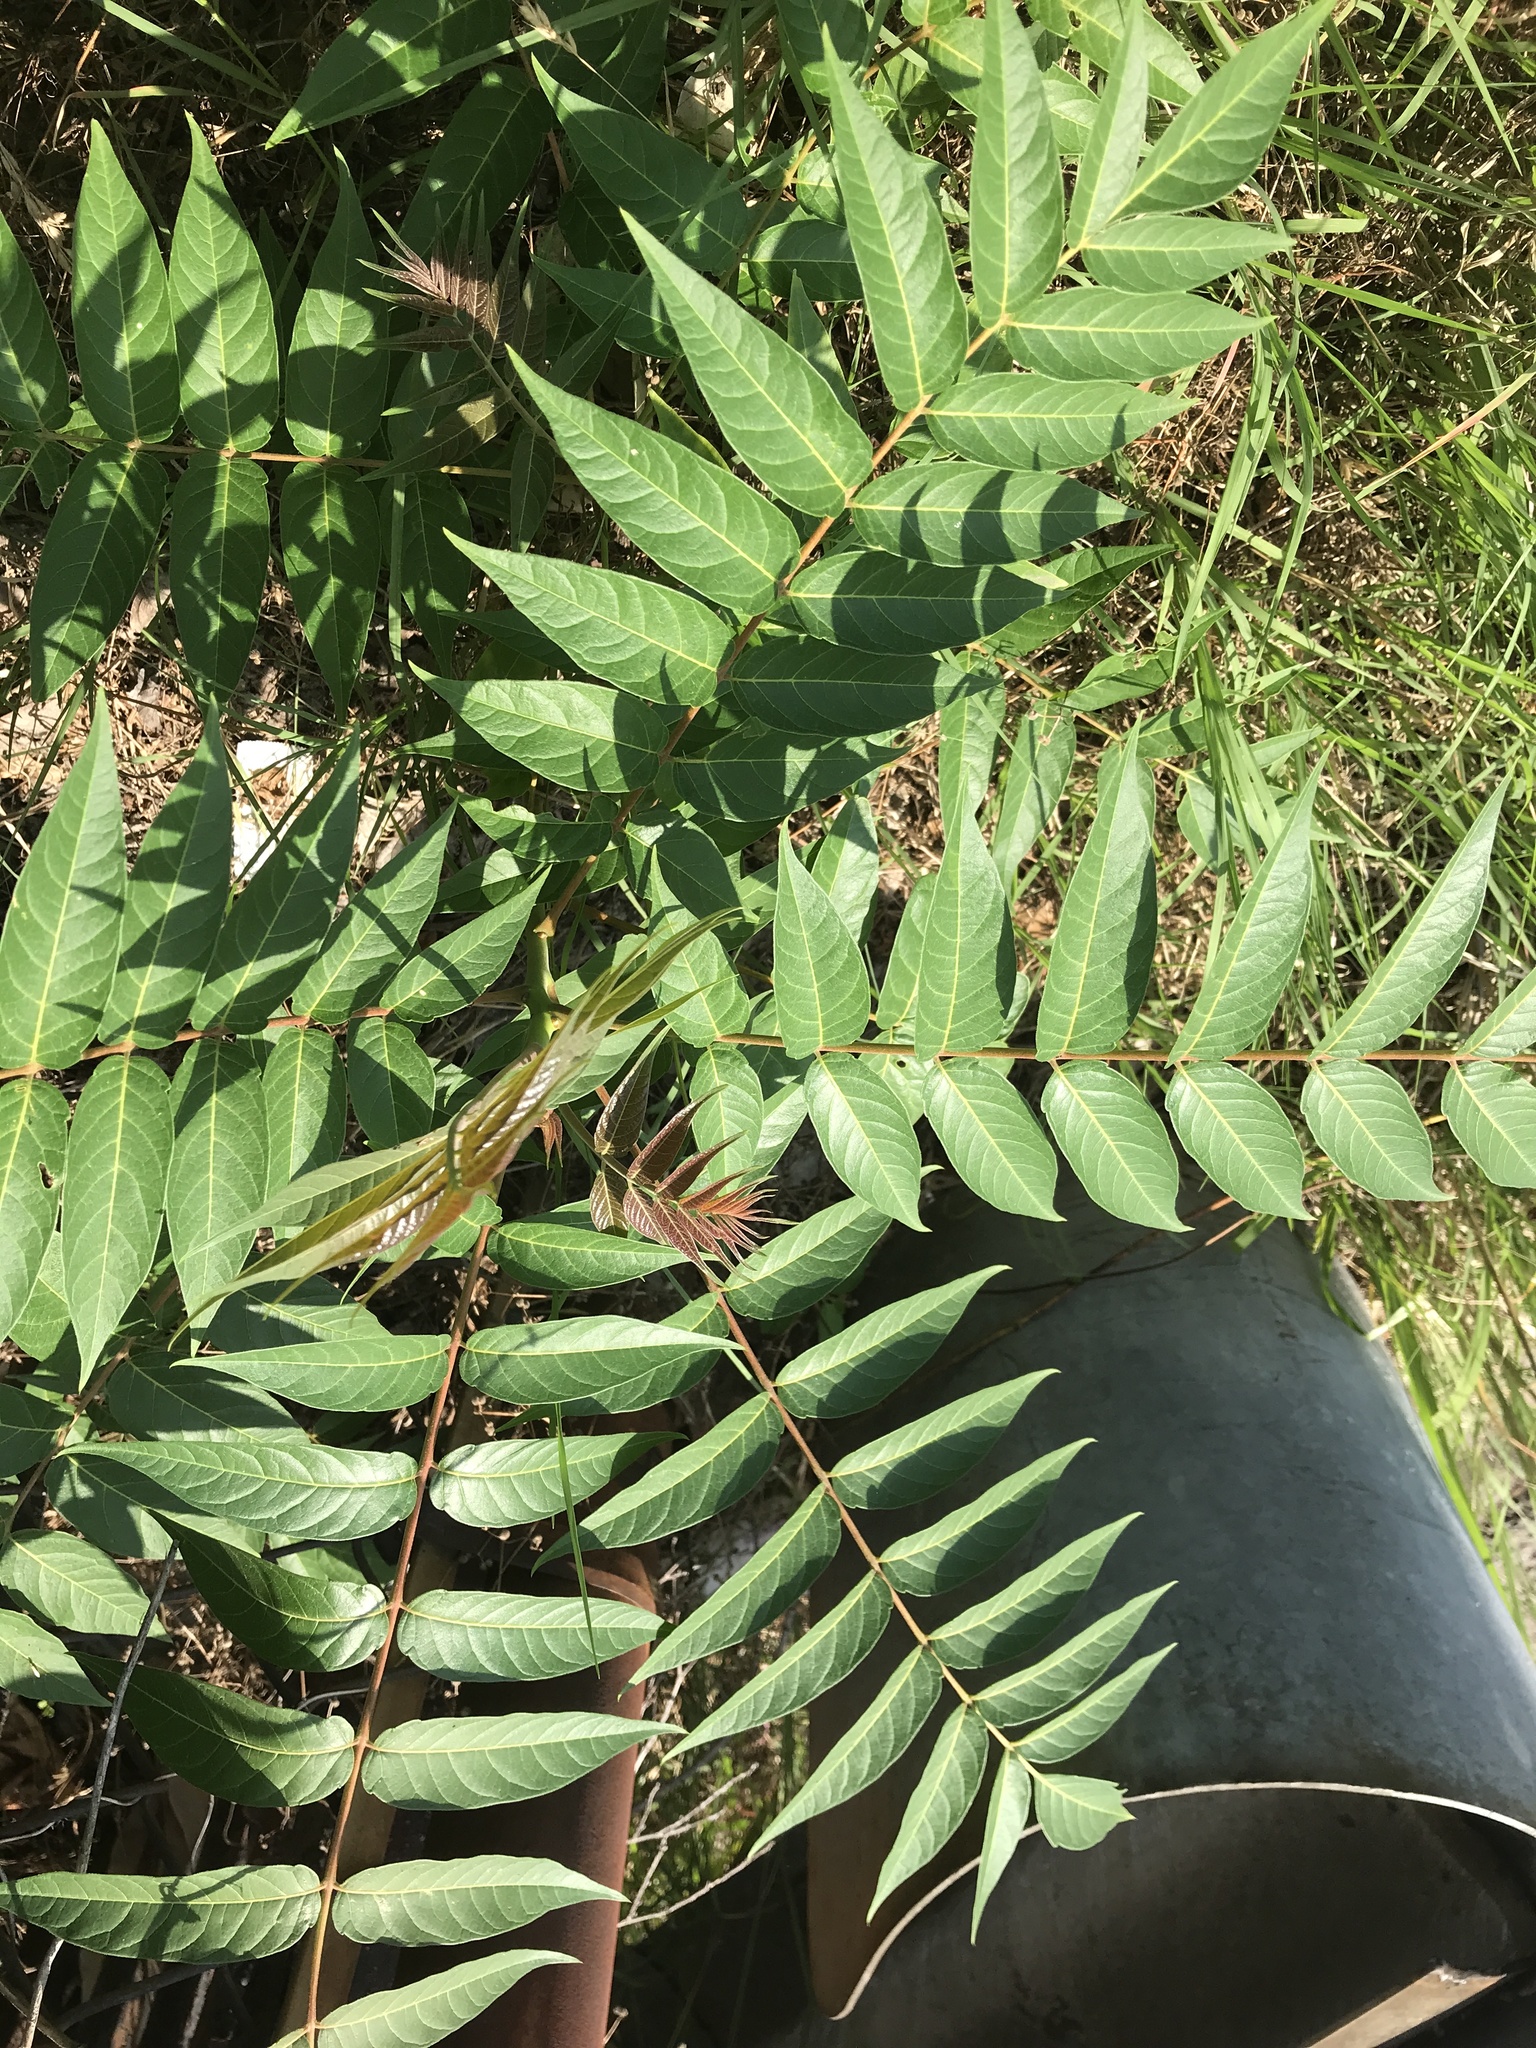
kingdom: Plantae
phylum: Tracheophyta
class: Magnoliopsida
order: Sapindales
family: Simaroubaceae
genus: Ailanthus
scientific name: Ailanthus altissima
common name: Tree-of-heaven
